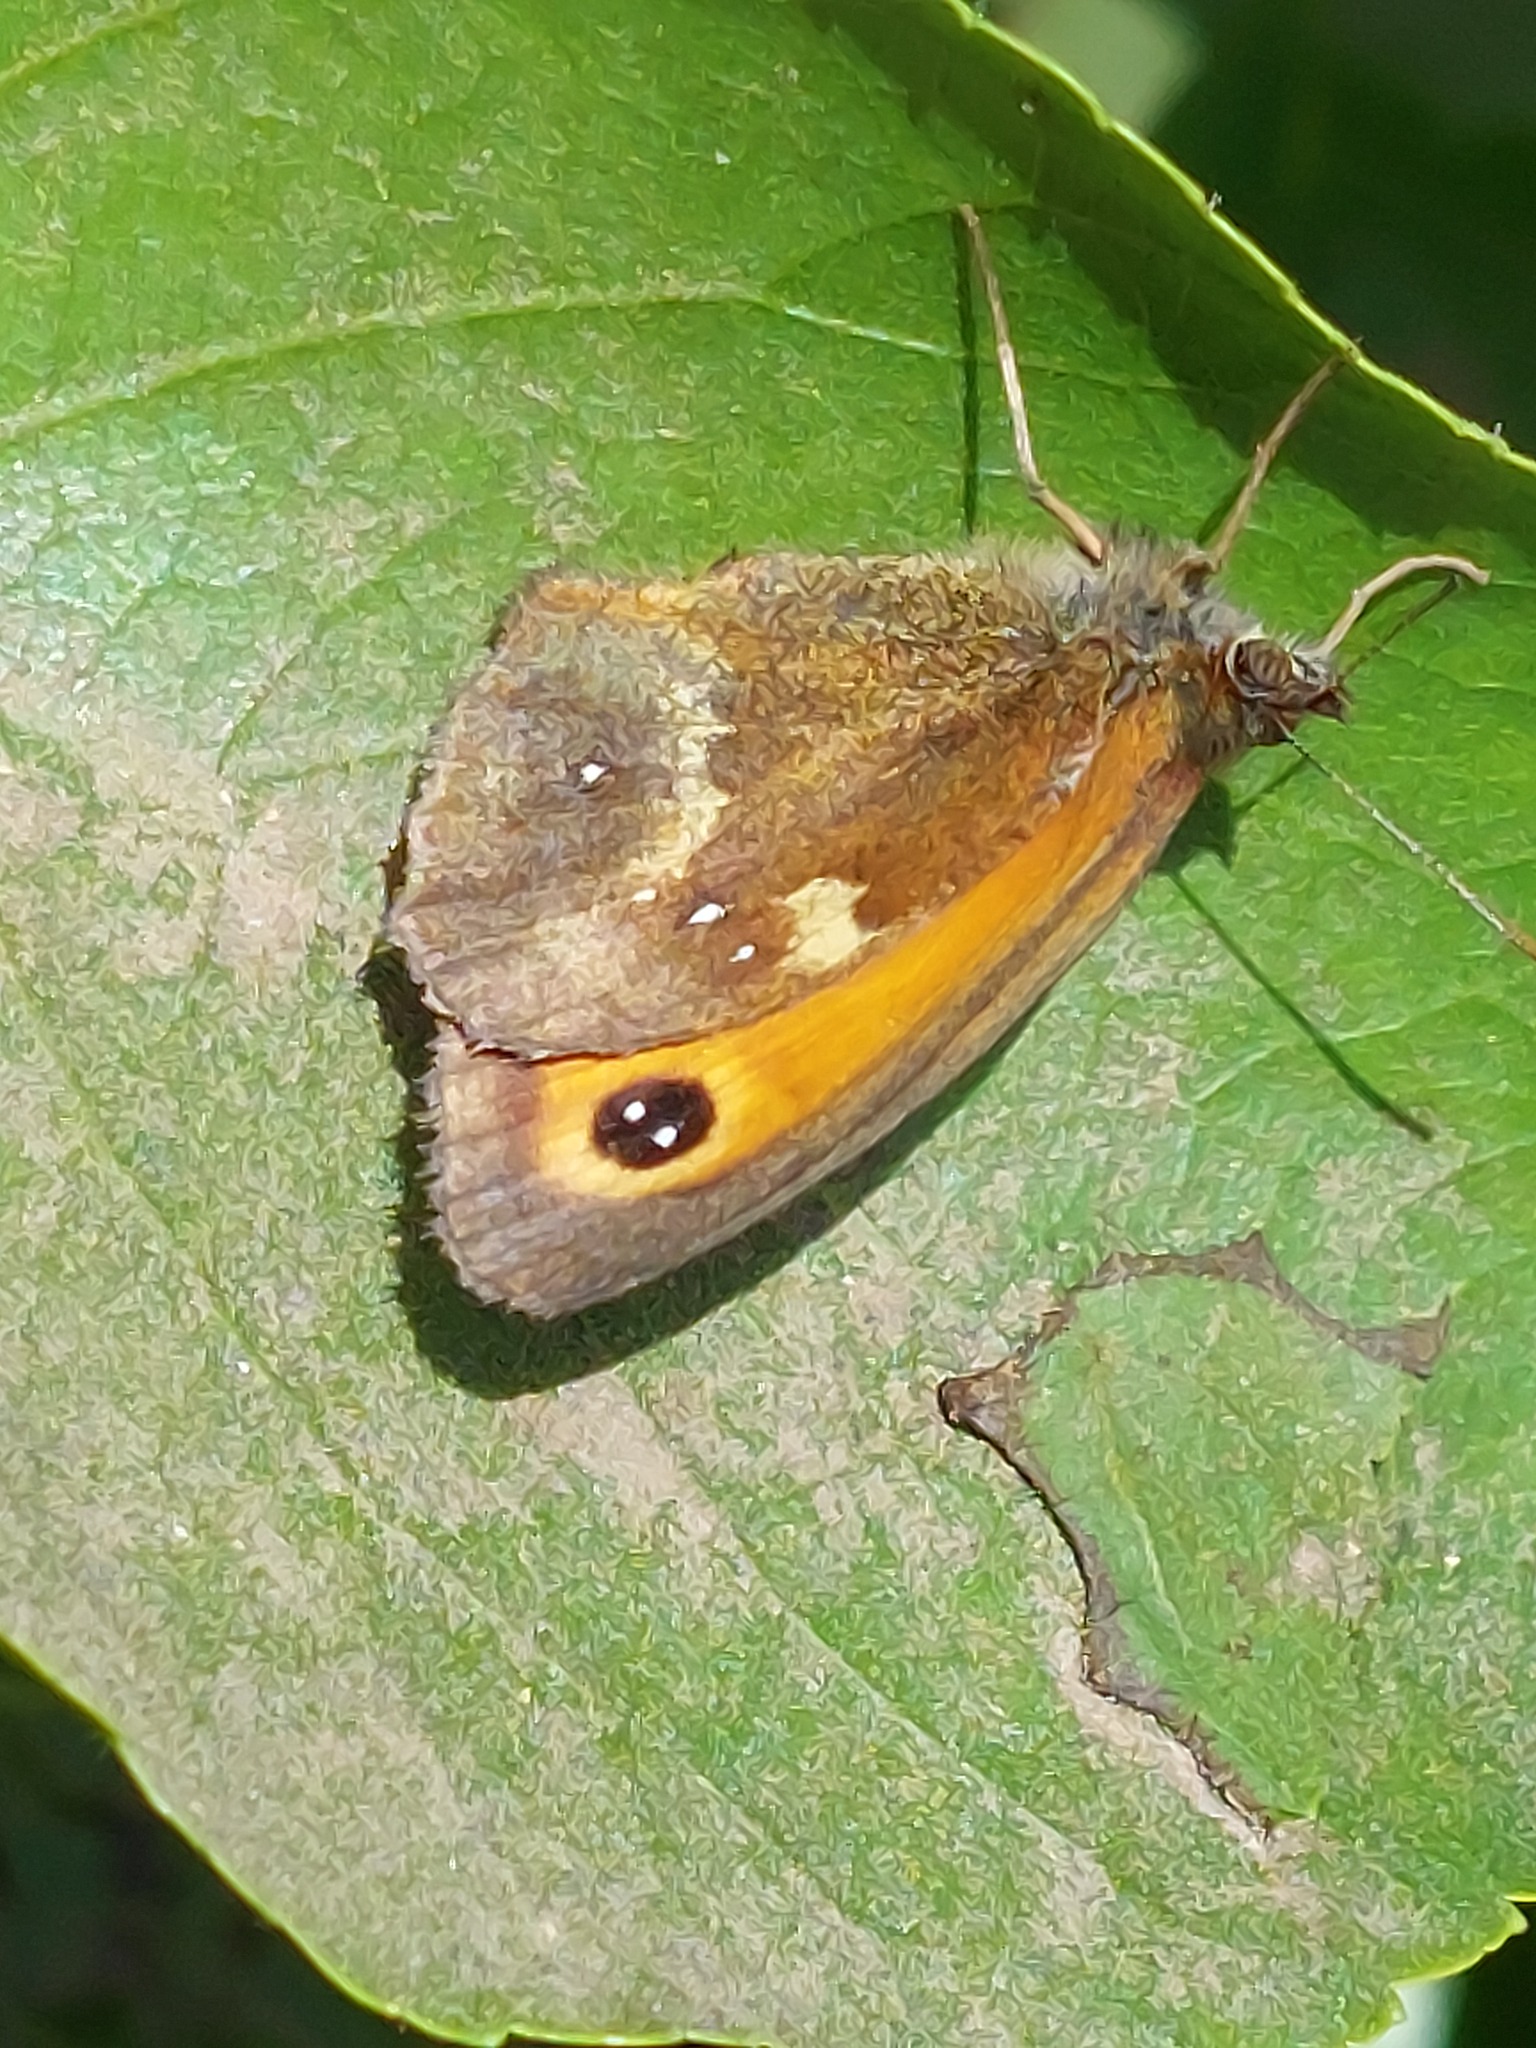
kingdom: Animalia
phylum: Arthropoda
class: Insecta
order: Lepidoptera
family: Nymphalidae
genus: Pyronia
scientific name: Pyronia tithonus
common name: Gatekeeper
